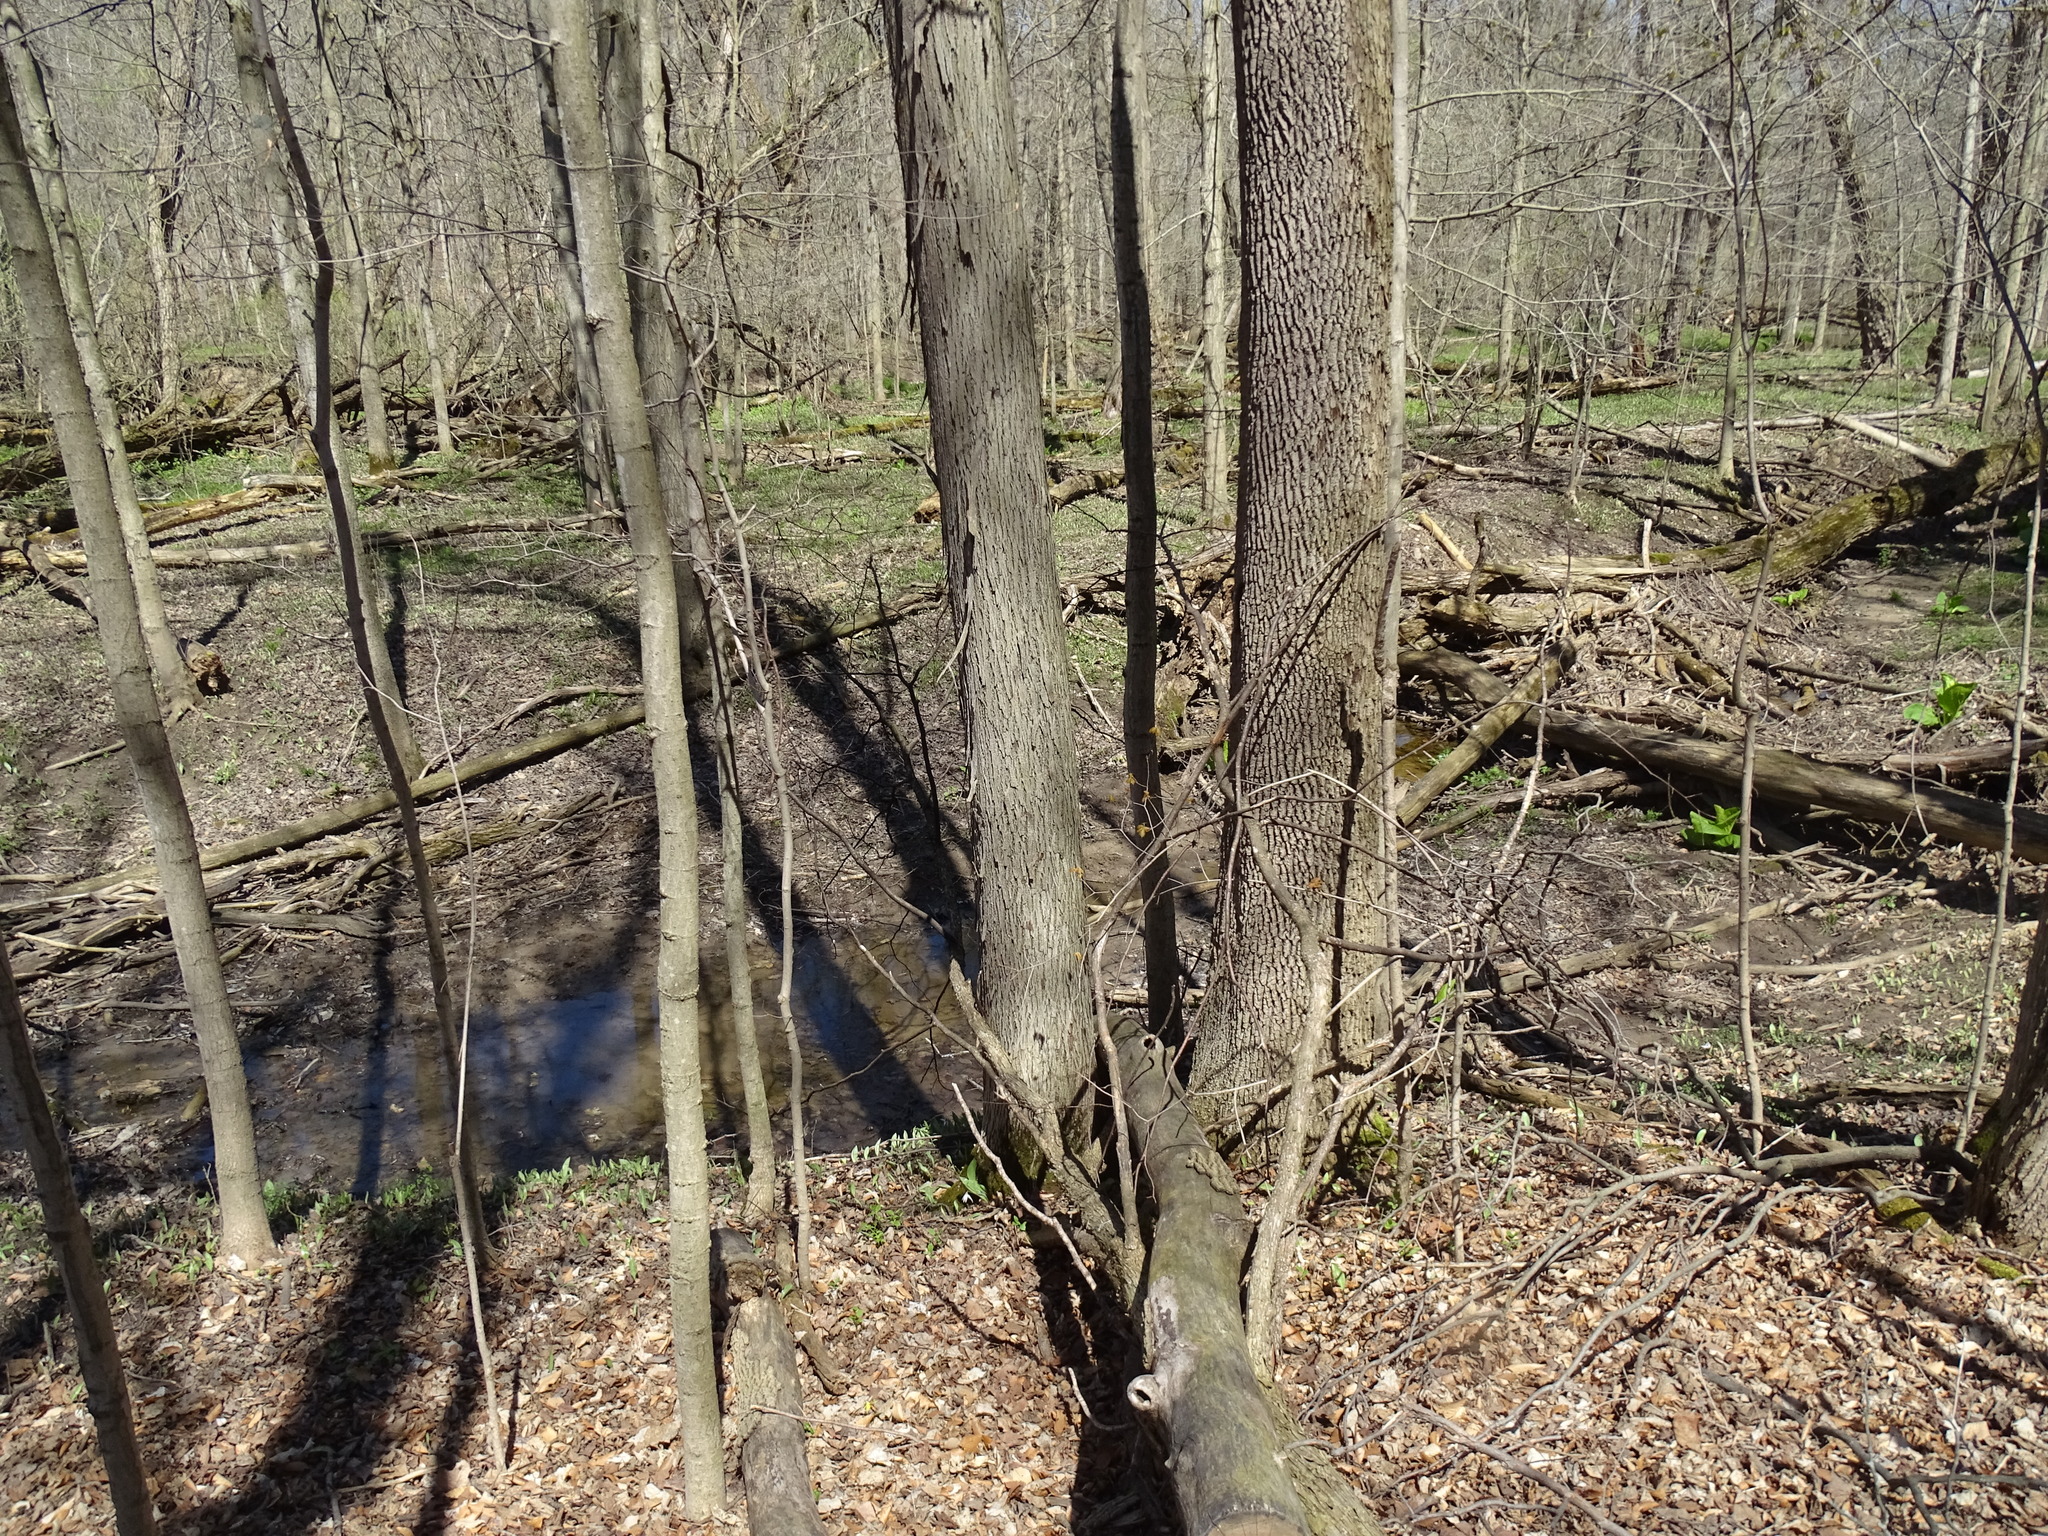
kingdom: Plantae
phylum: Tracheophyta
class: Magnoliopsida
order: Fagales
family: Juglandaceae
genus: Carya
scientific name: Carya ovata
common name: Shagbark hickory
